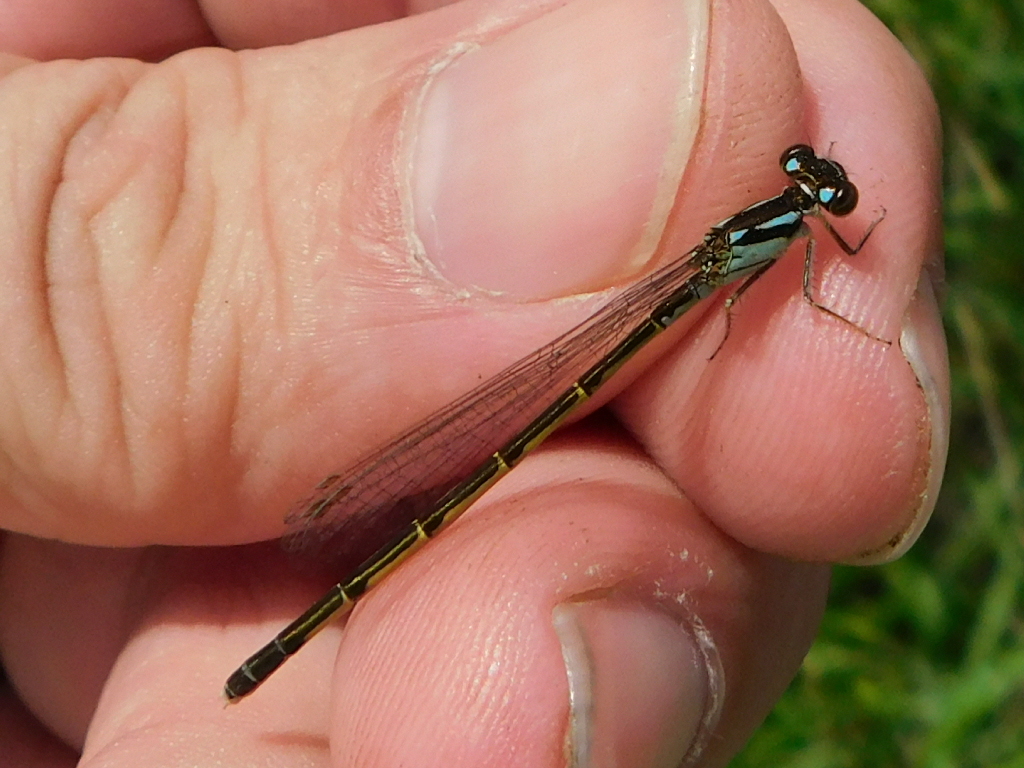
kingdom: Animalia
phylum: Arthropoda
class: Insecta
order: Odonata
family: Coenagrionidae
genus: Ischnura
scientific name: Ischnura posita
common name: Fragile forktail
